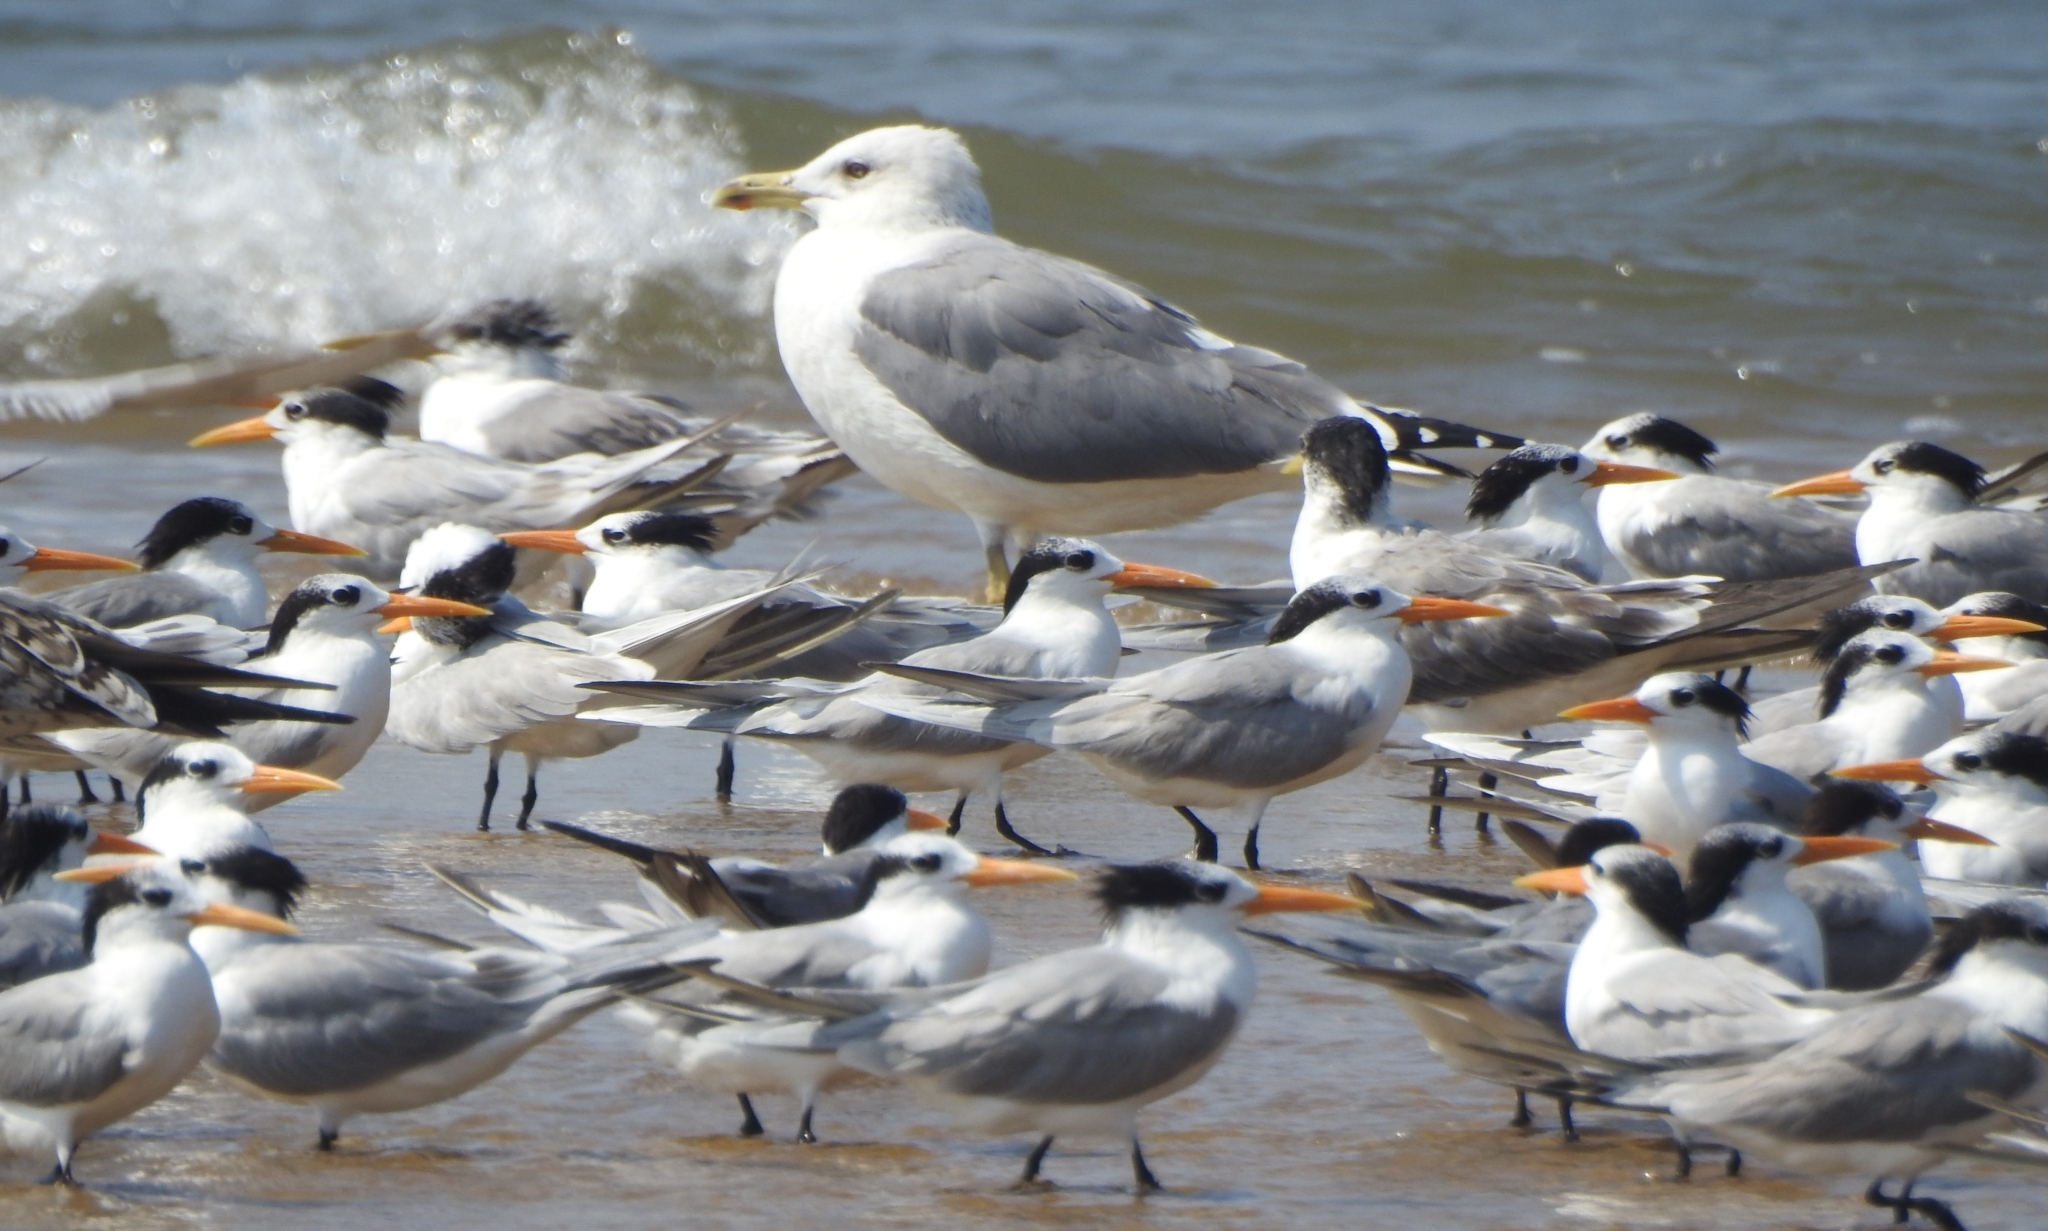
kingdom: Animalia
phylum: Chordata
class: Aves
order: Charadriiformes
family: Laridae
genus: Larus
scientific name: Larus fuscus
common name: Lesser black-backed gull
